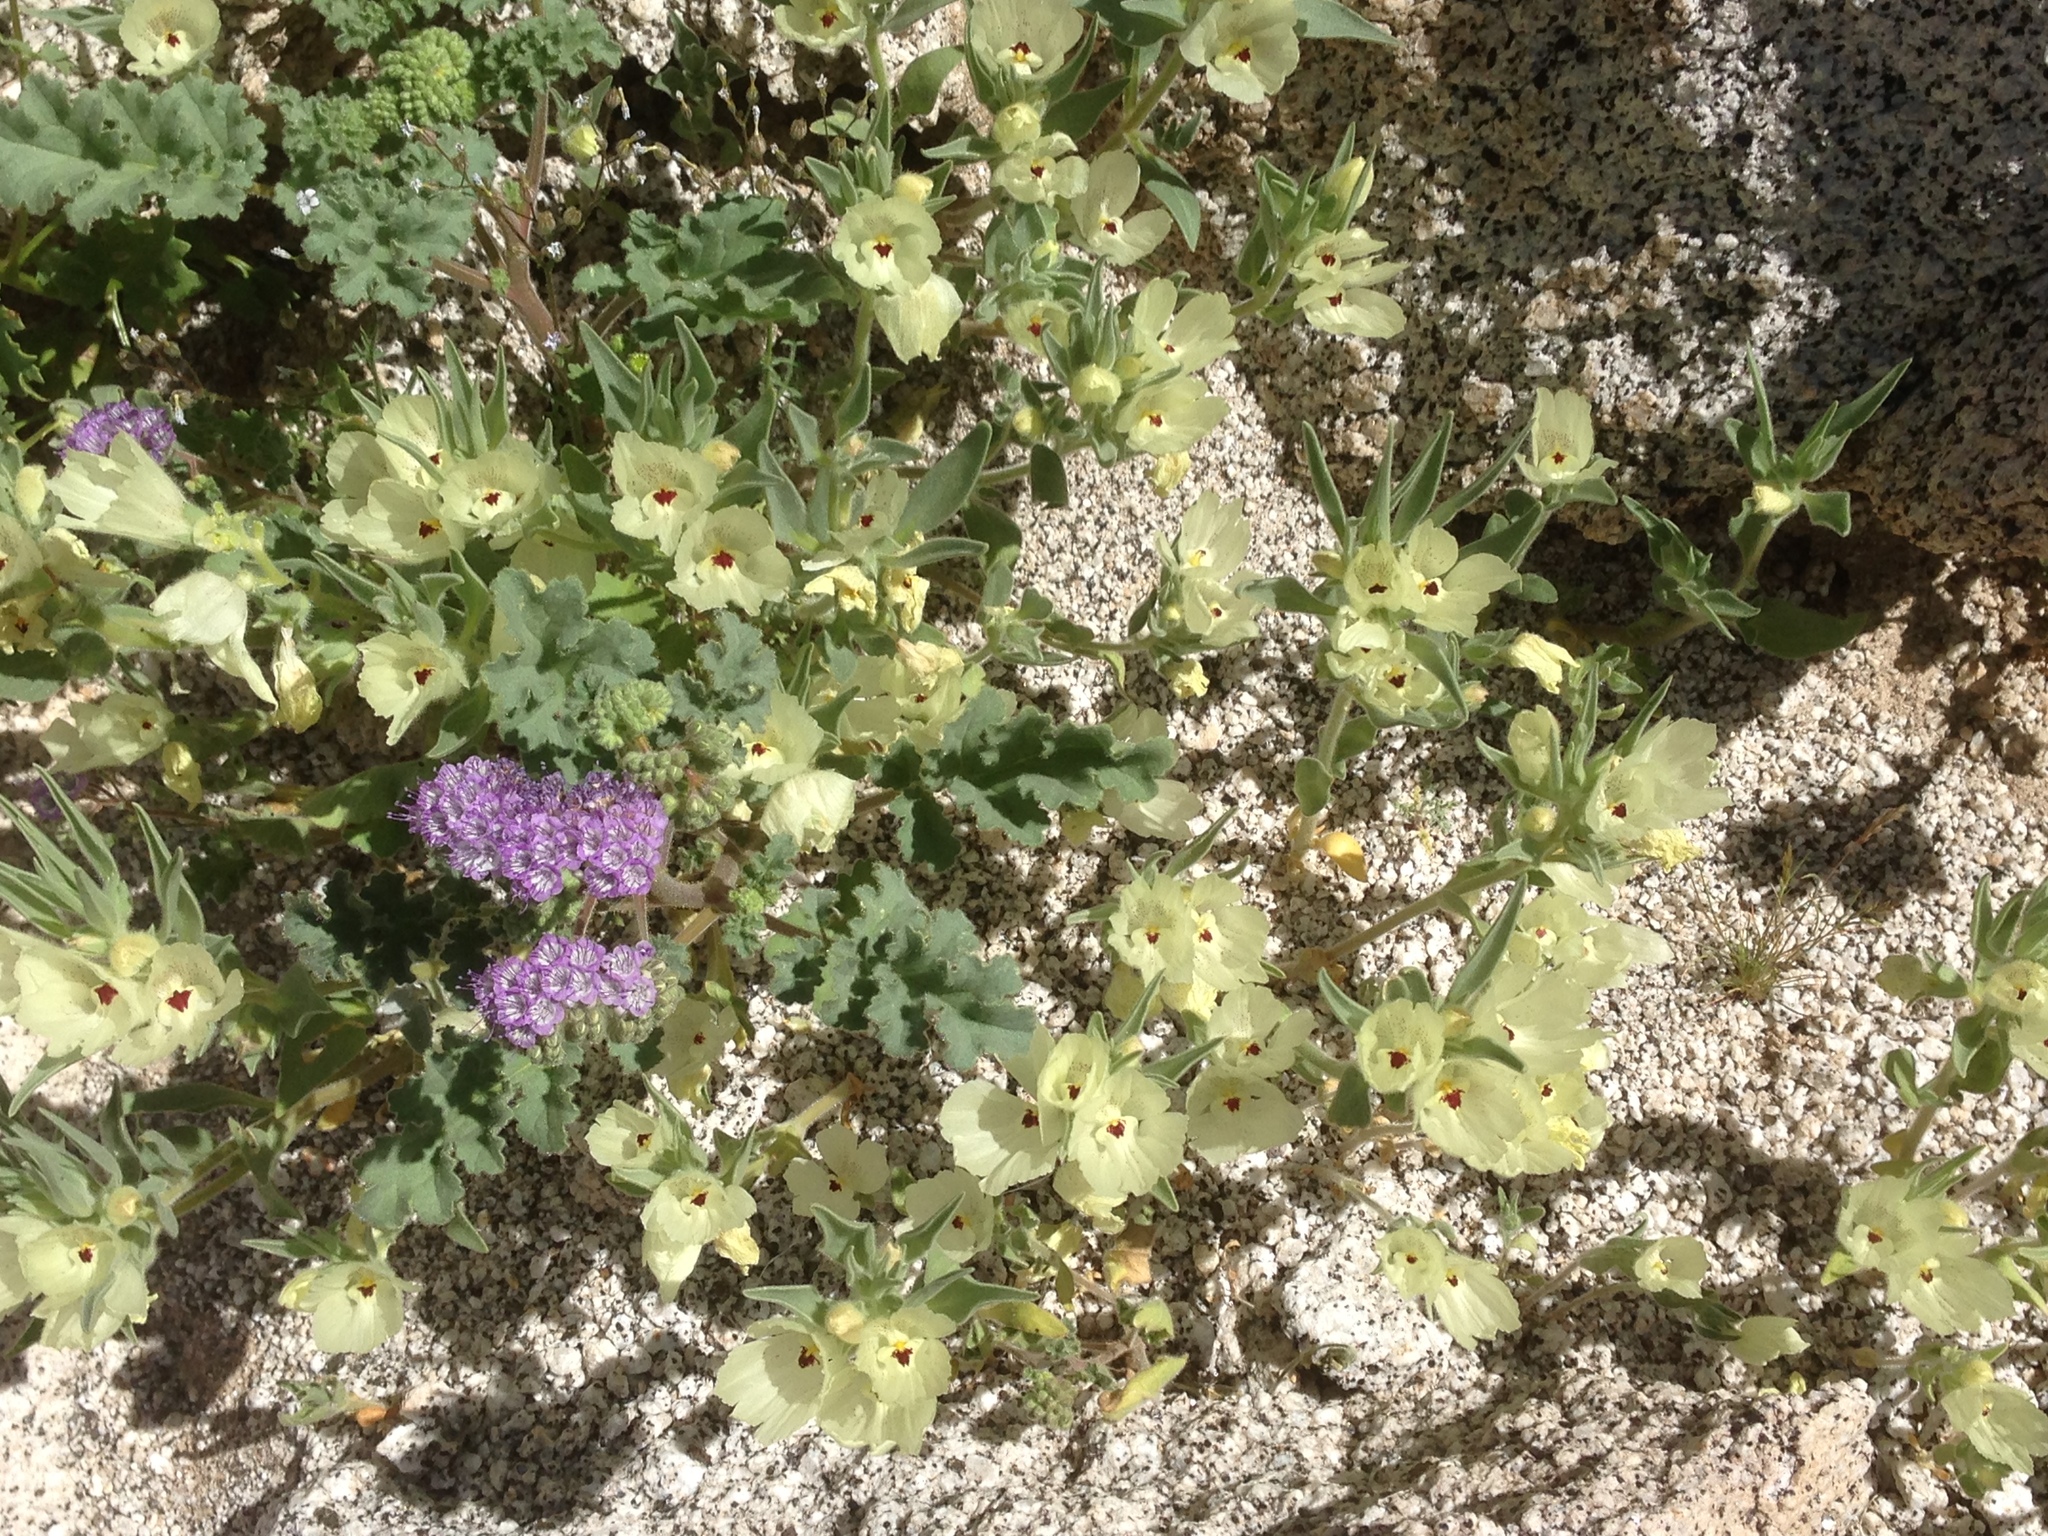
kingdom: Plantae
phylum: Tracheophyta
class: Magnoliopsida
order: Lamiales
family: Plantaginaceae
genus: Mohavea
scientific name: Mohavea confertiflora
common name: Ghost flower
